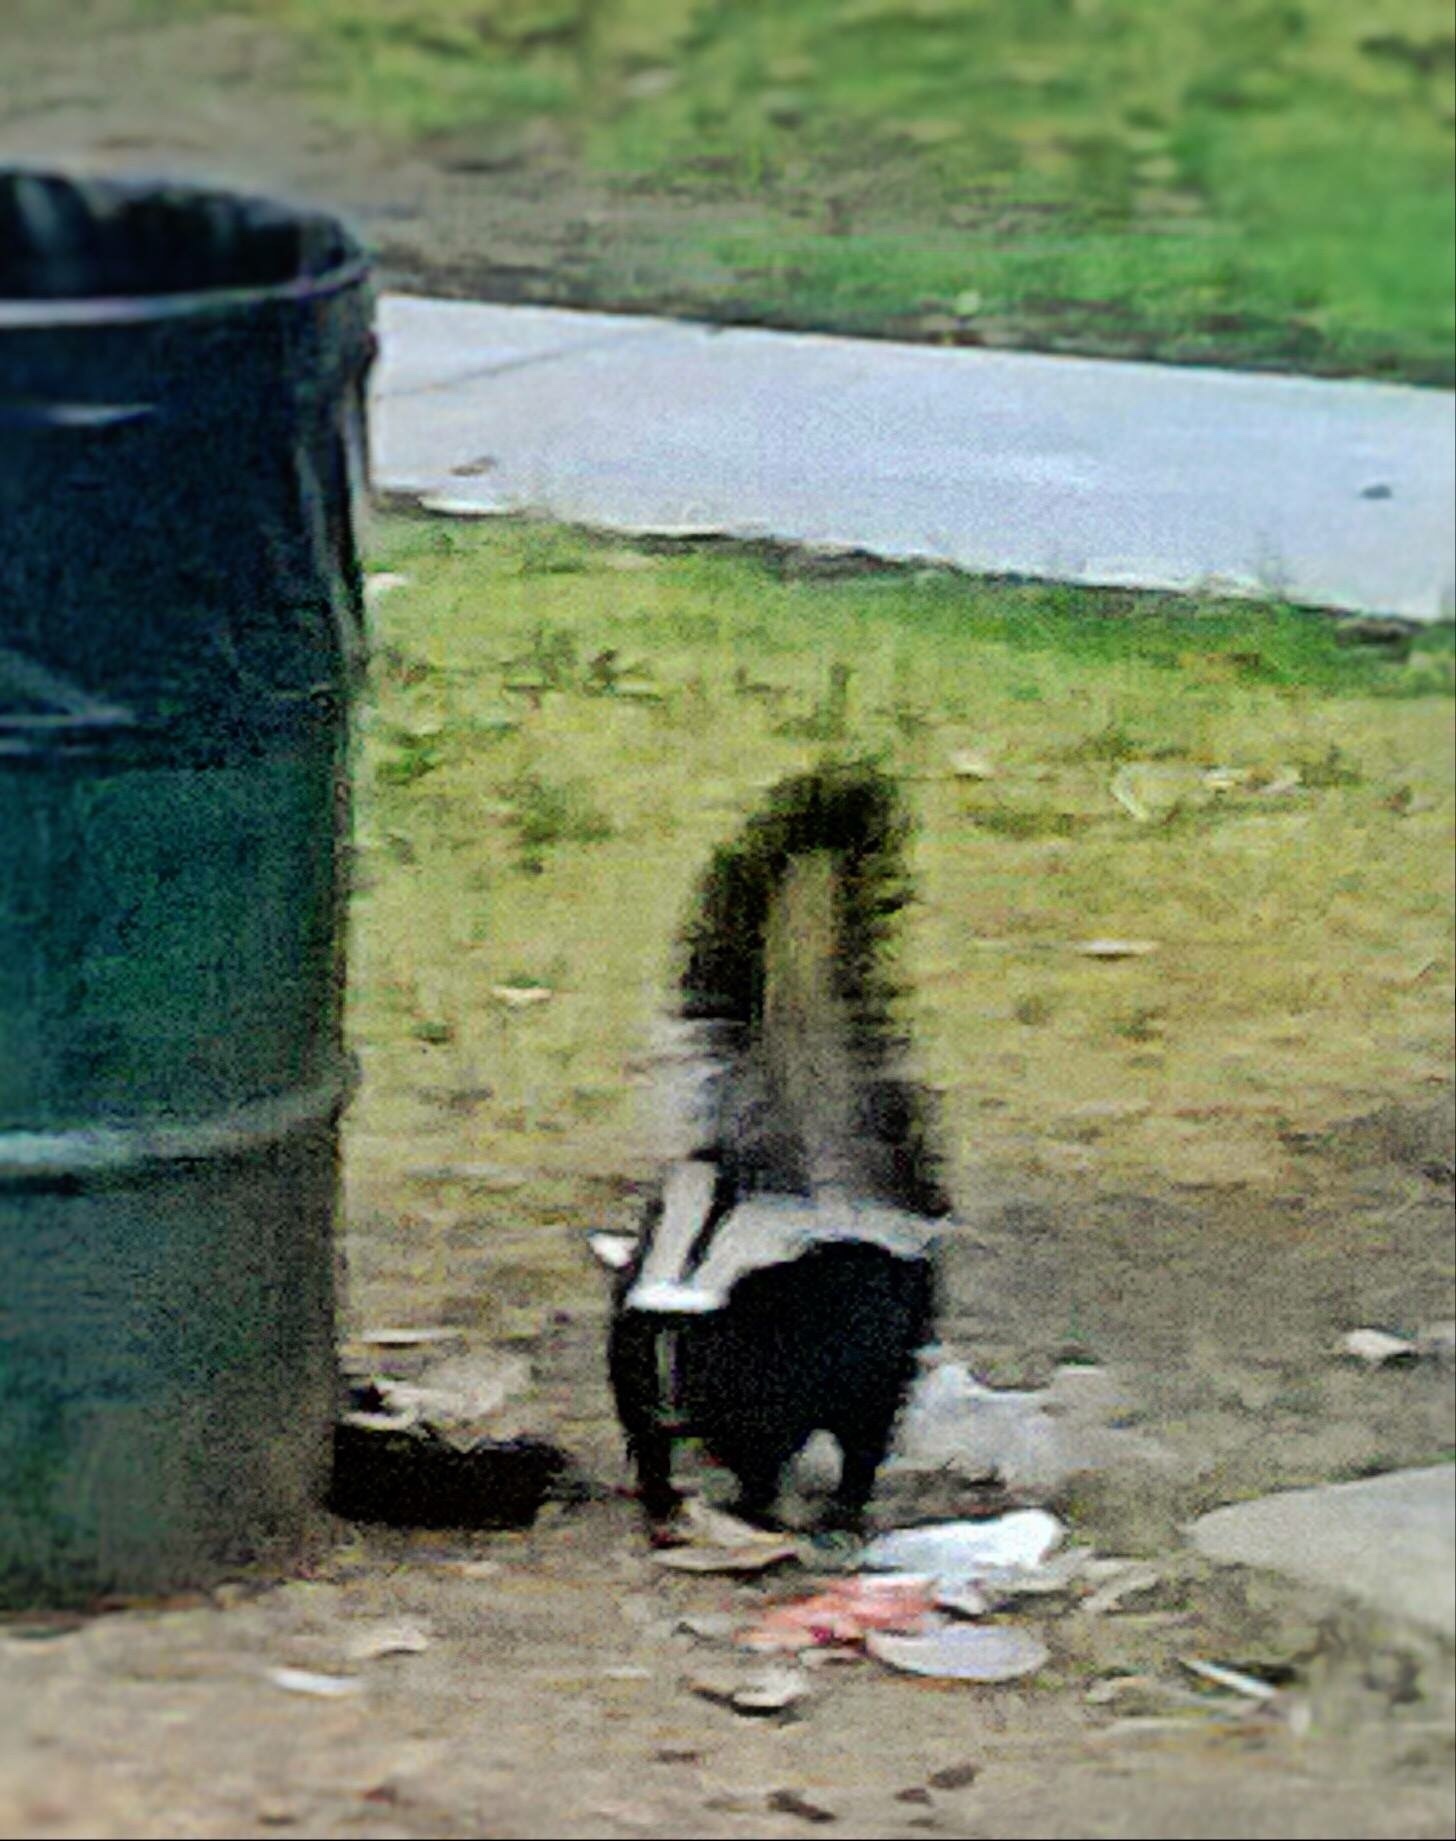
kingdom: Animalia
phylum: Chordata
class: Mammalia
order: Carnivora
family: Mephitidae
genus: Mephitis
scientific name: Mephitis mephitis
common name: Striped skunk
